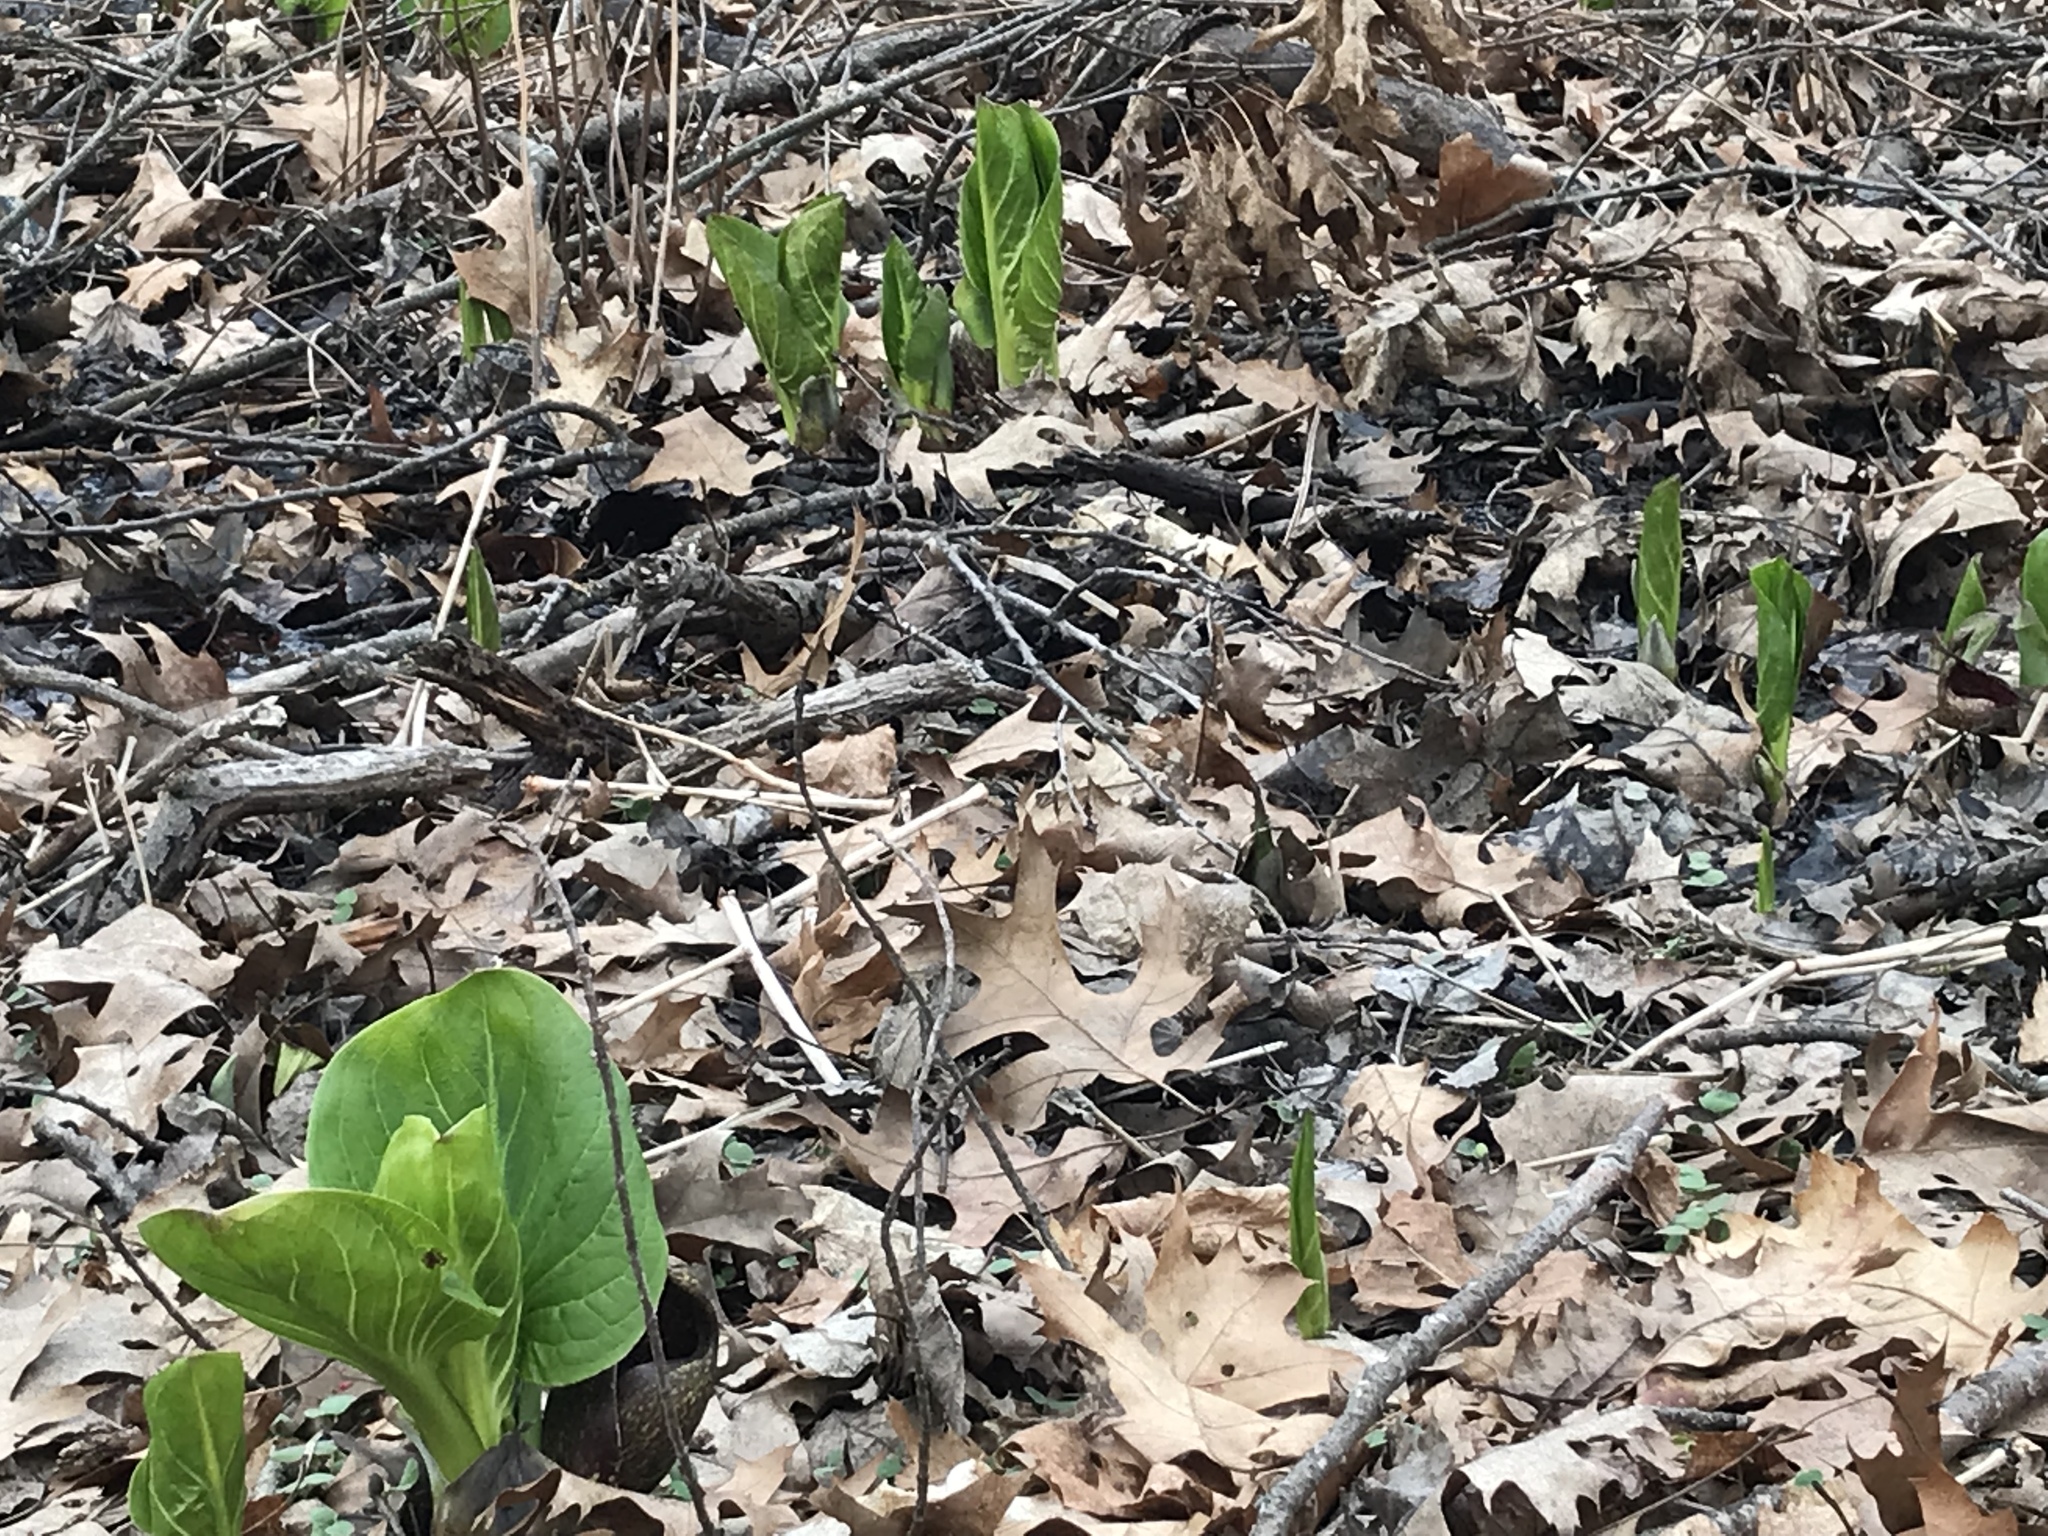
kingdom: Plantae
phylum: Tracheophyta
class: Liliopsida
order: Alismatales
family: Araceae
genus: Symplocarpus
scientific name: Symplocarpus foetidus
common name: Eastern skunk cabbage
